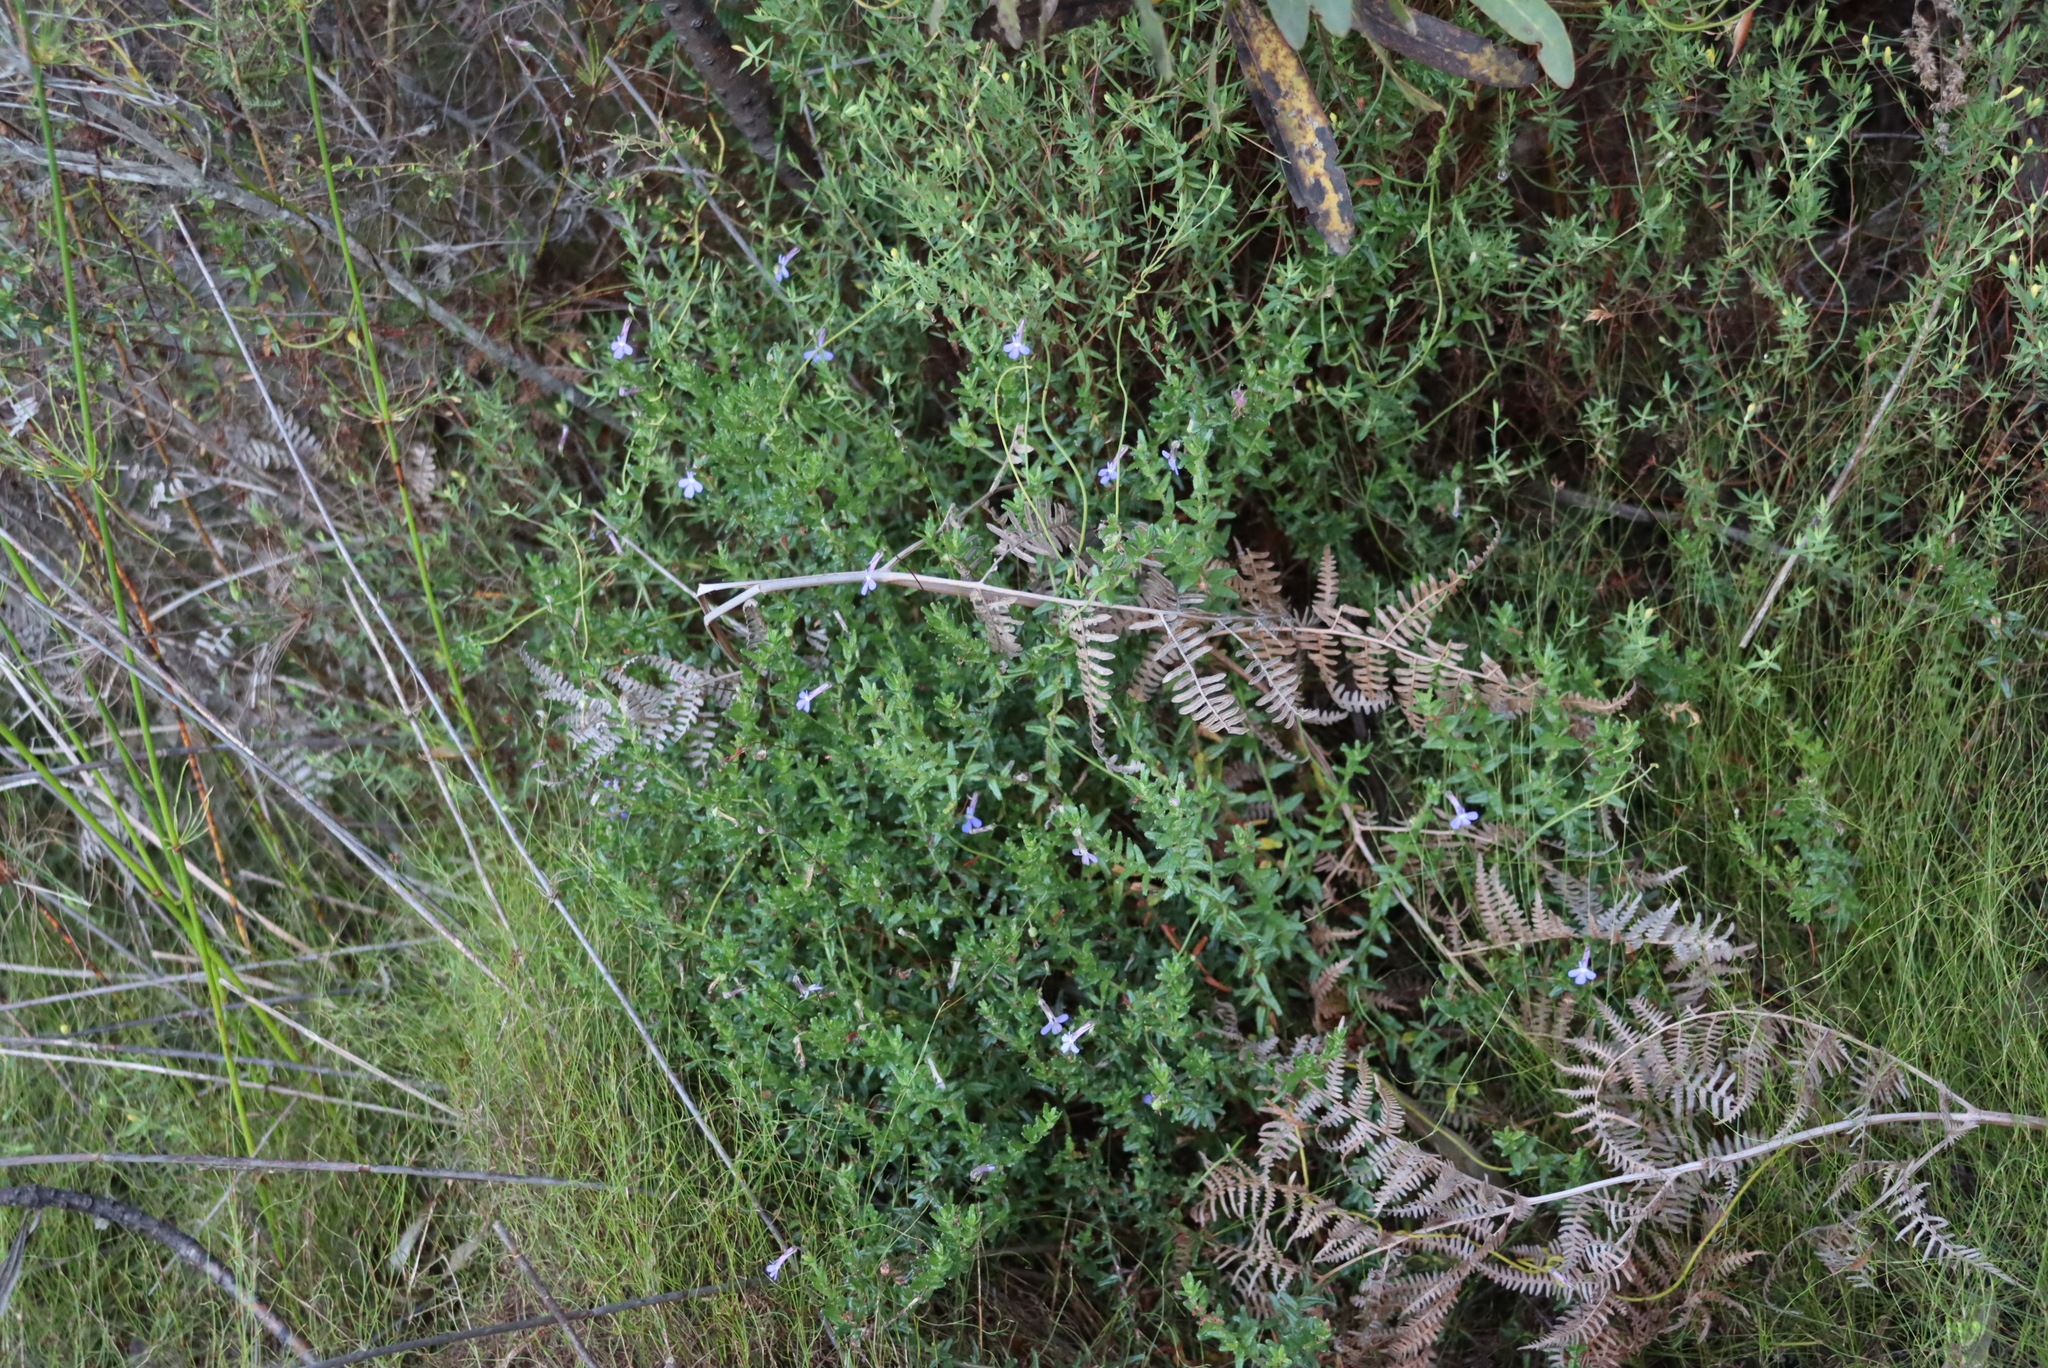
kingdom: Plantae
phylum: Tracheophyta
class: Magnoliopsida
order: Asterales
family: Campanulaceae
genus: Lobelia
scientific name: Lobelia neglecta
